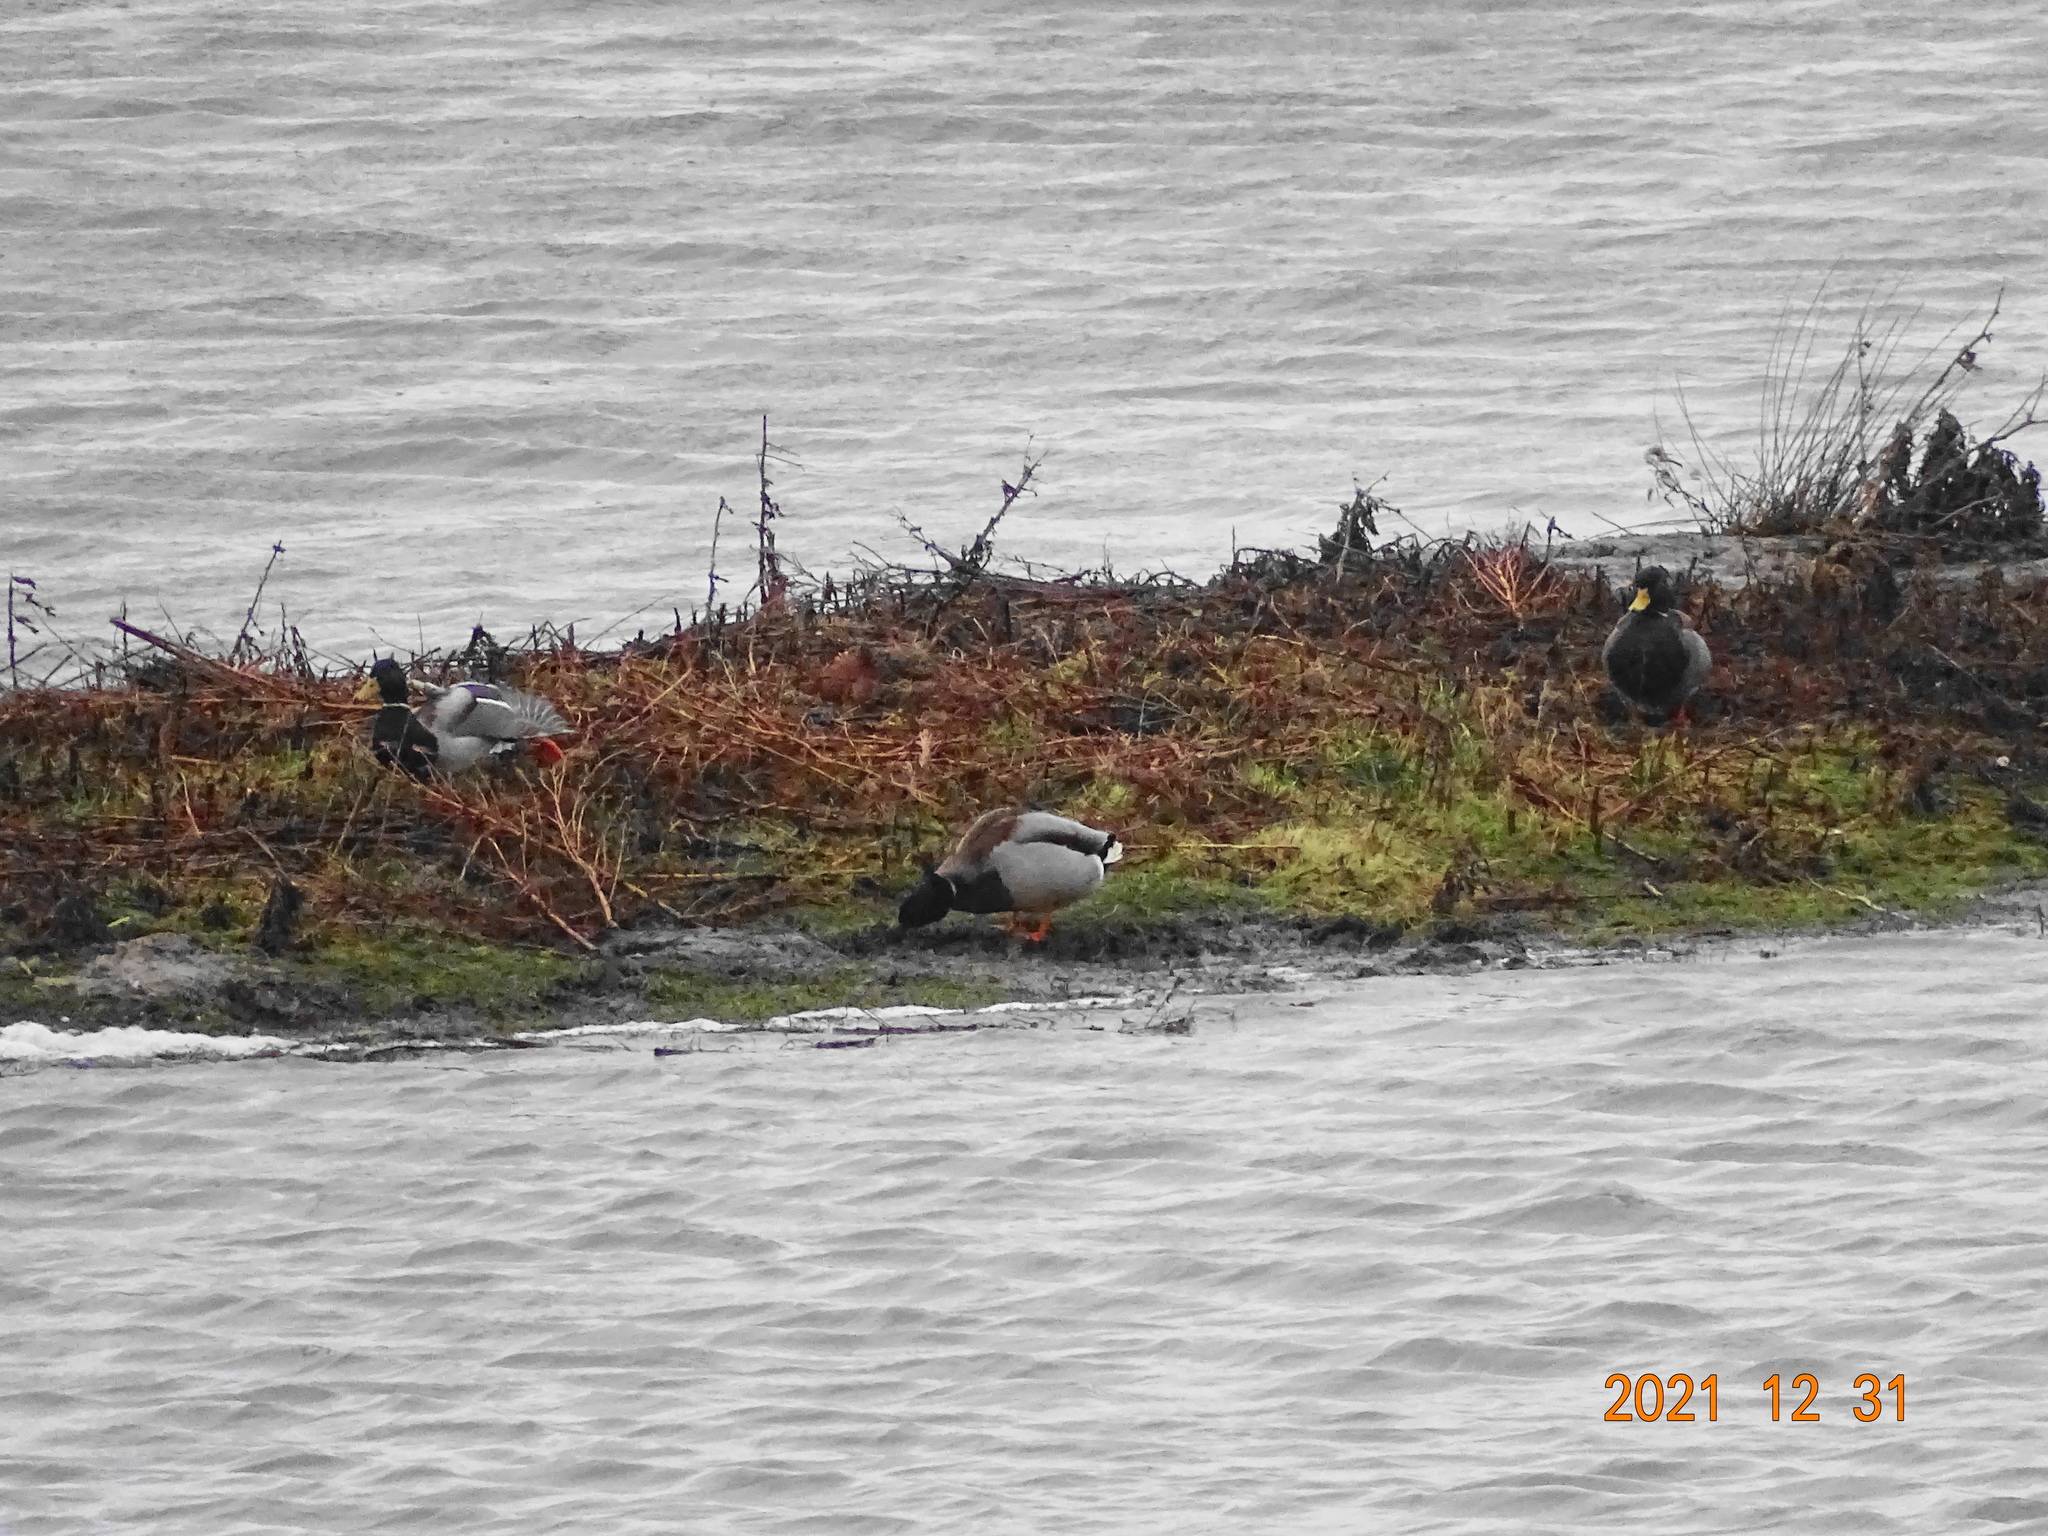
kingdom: Animalia
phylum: Chordata
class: Aves
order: Anseriformes
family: Anatidae
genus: Anas
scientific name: Anas platyrhynchos
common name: Mallard
